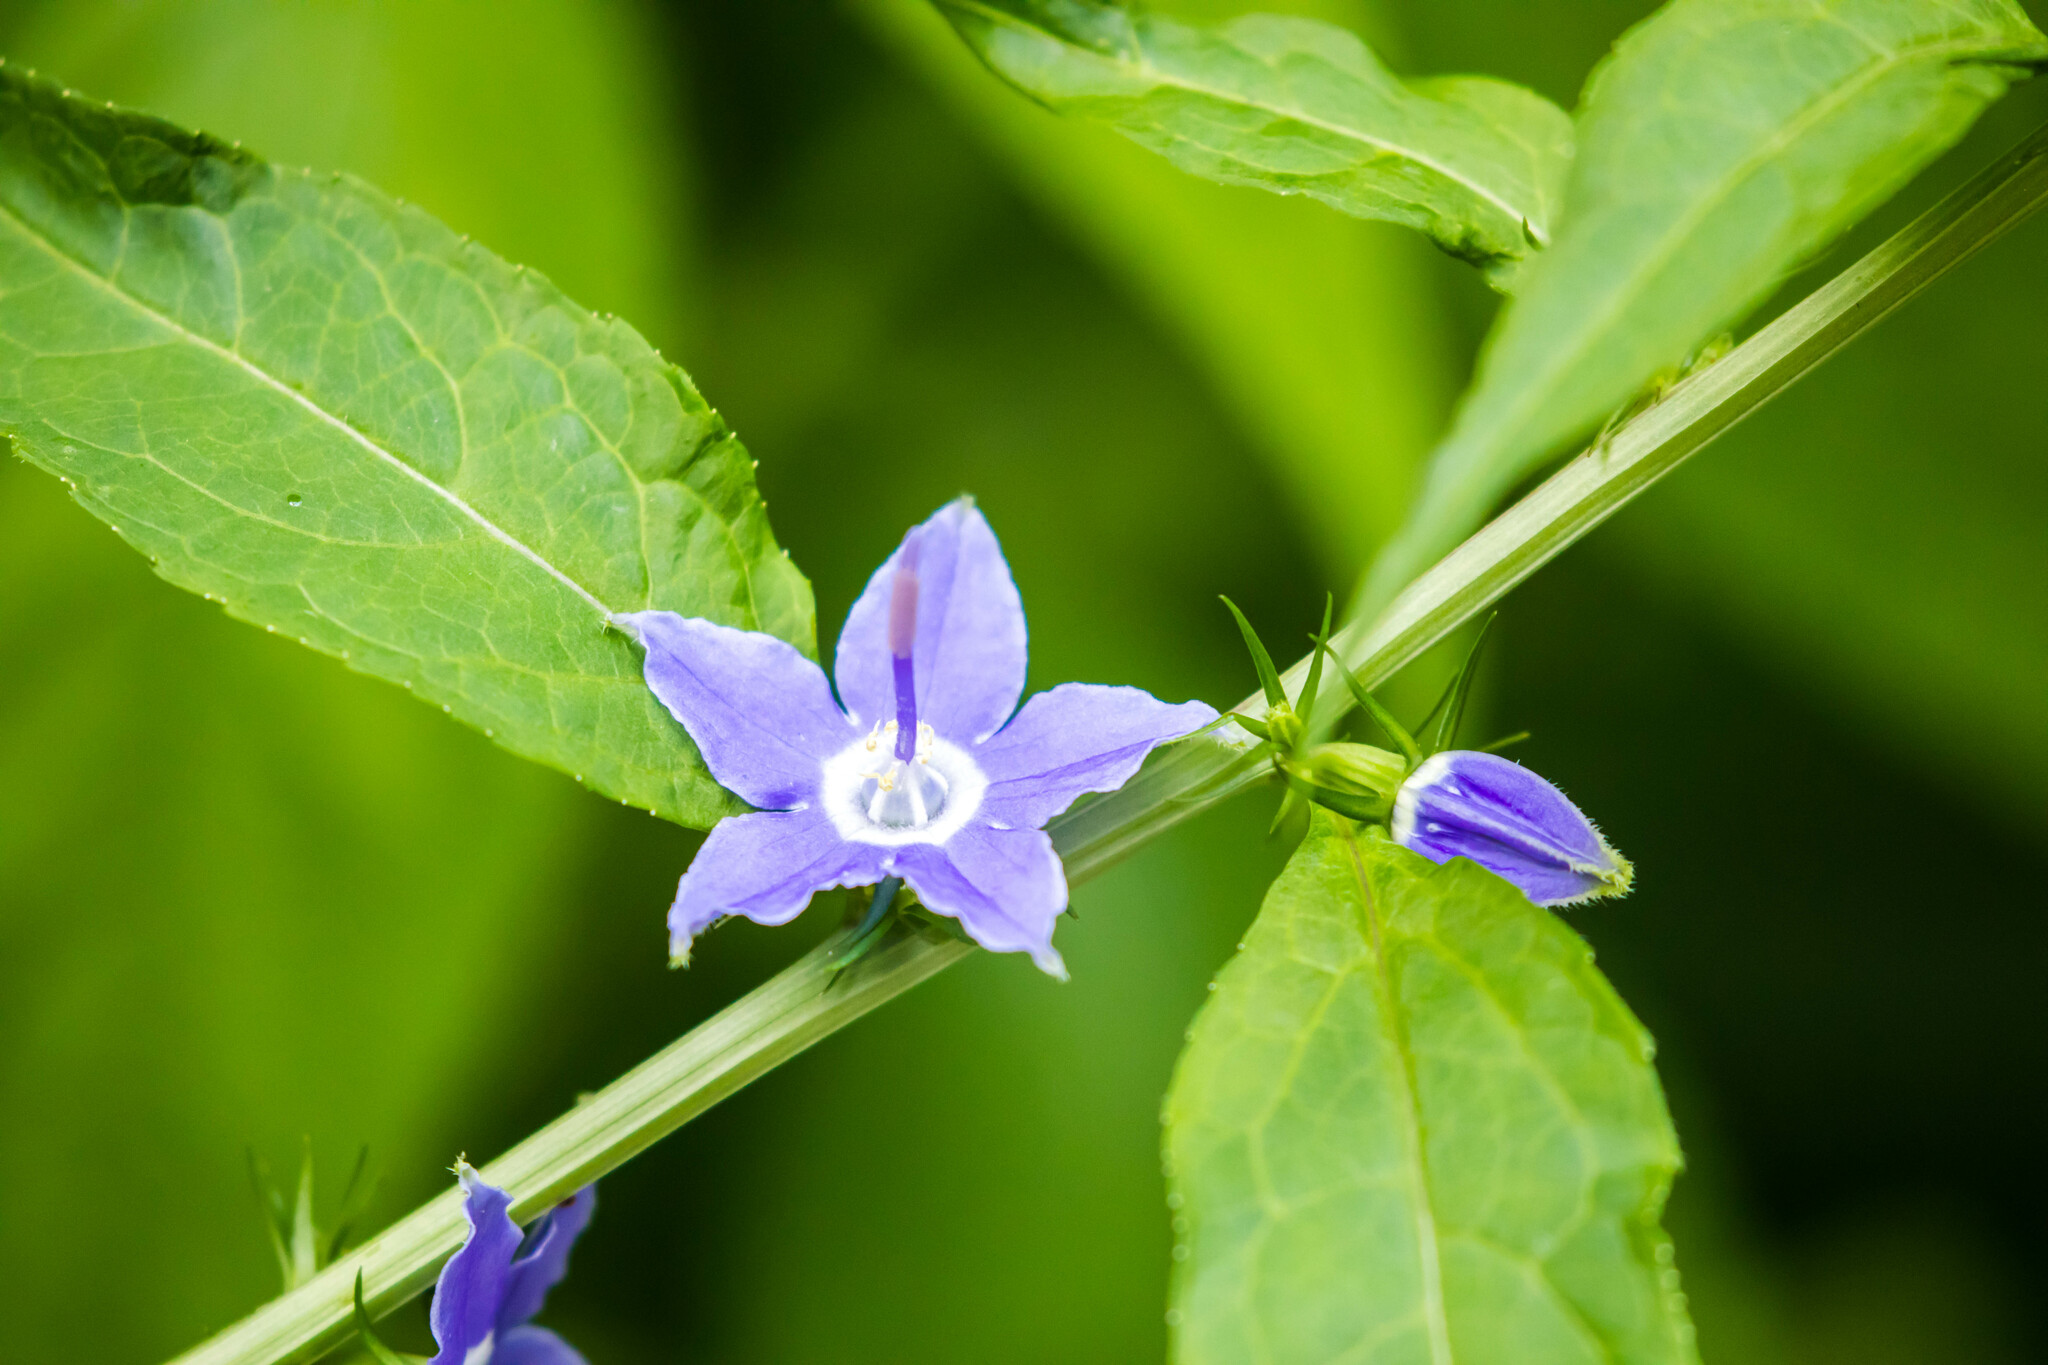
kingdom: Plantae
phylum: Tracheophyta
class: Magnoliopsida
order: Asterales
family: Campanulaceae
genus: Campanulastrum
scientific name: Campanulastrum americanum
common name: American bellflower
